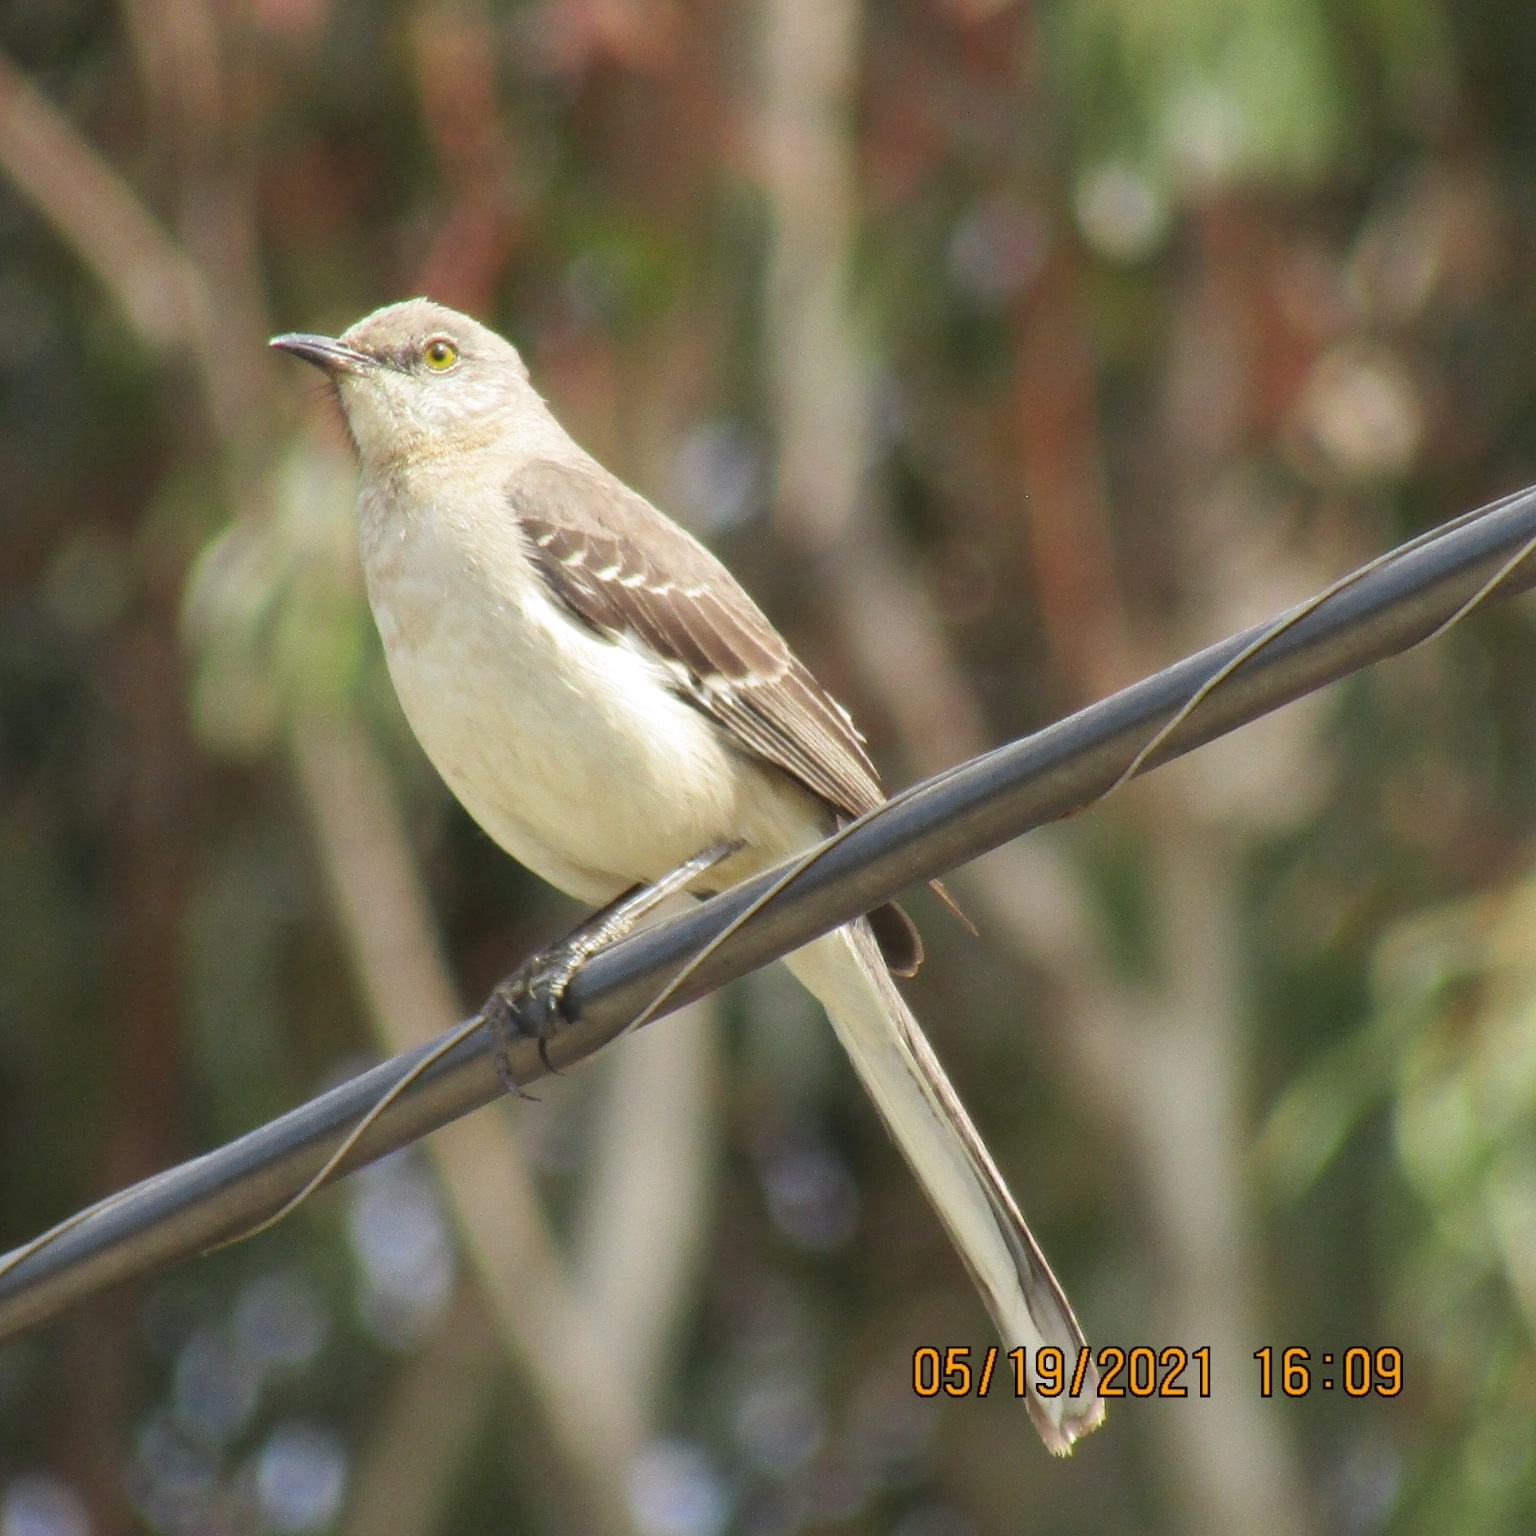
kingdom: Animalia
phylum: Chordata
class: Aves
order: Passeriformes
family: Mimidae
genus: Mimus
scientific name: Mimus polyglottos
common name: Northern mockingbird
